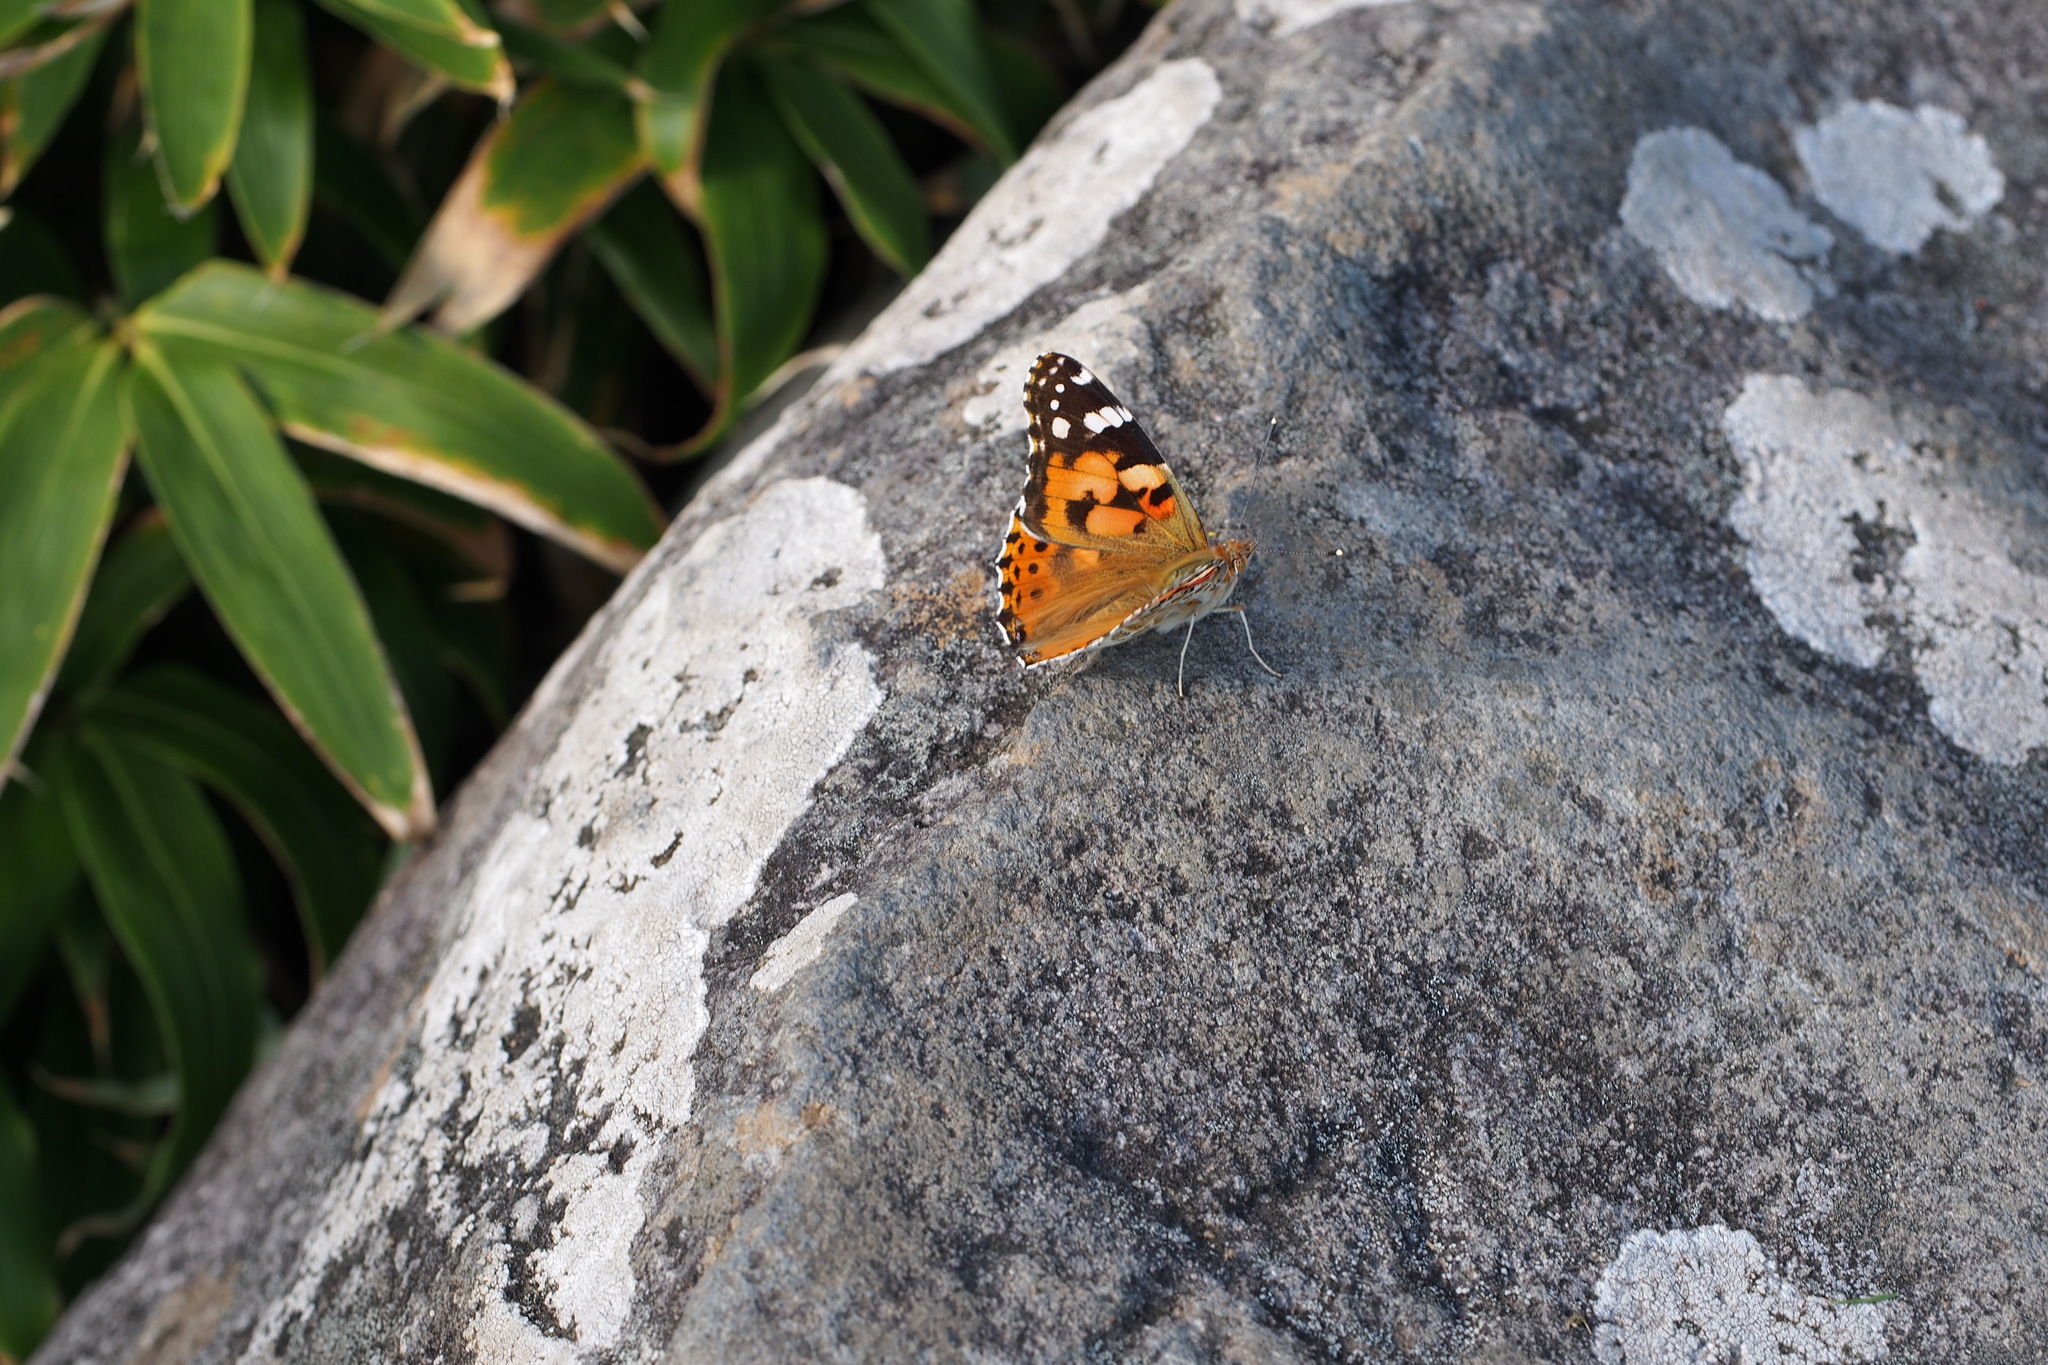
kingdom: Animalia
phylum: Arthropoda
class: Insecta
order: Lepidoptera
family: Nymphalidae
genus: Vanessa
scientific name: Vanessa cardui
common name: Painted lady
